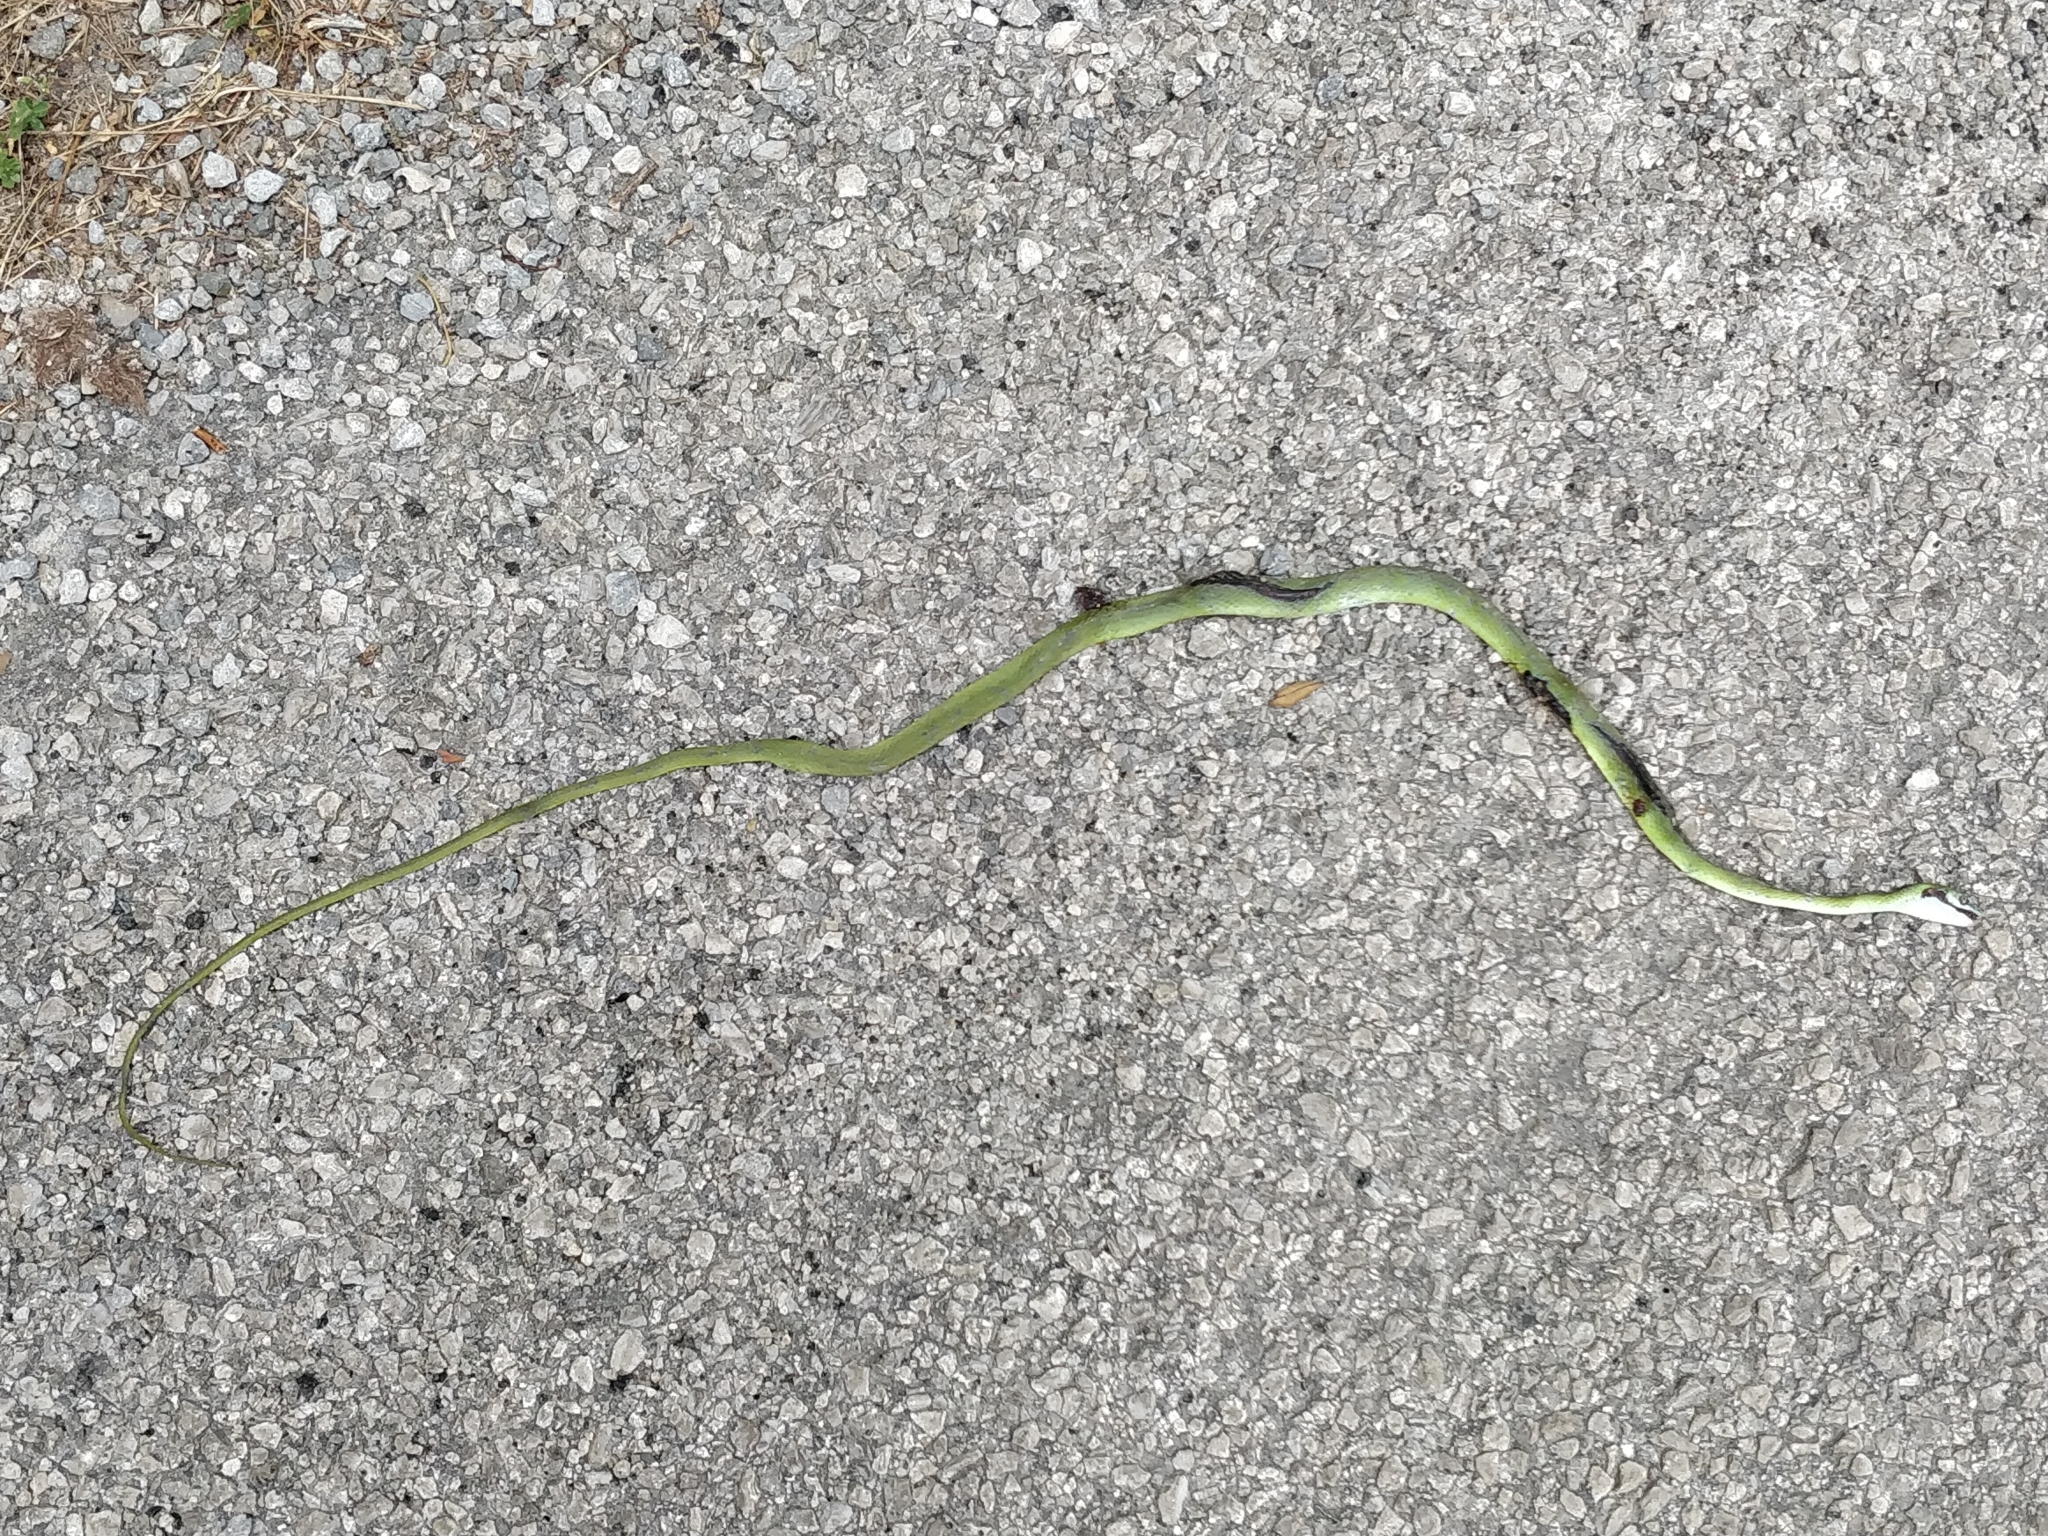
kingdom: Animalia
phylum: Chordata
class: Squamata
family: Colubridae
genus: Opheodrys
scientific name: Opheodrys aestivus
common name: Rough greensnake
